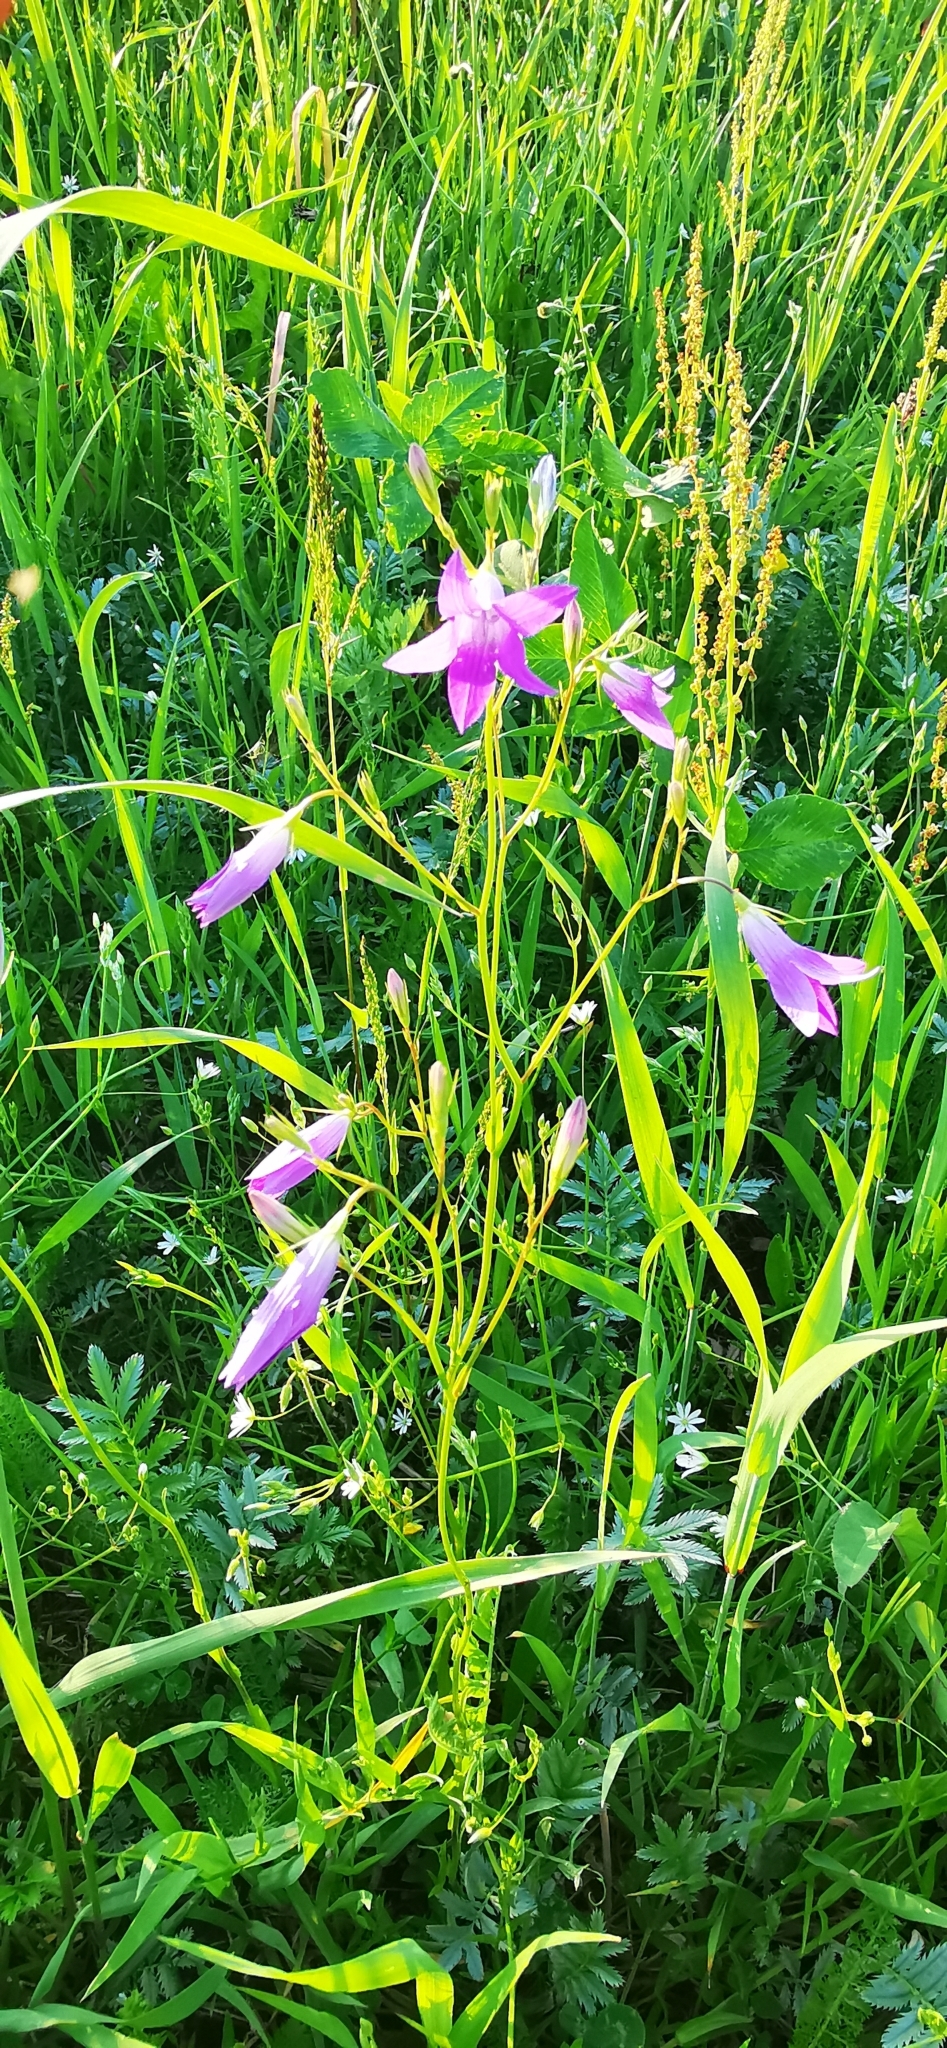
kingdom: Plantae
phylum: Tracheophyta
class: Magnoliopsida
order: Asterales
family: Campanulaceae
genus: Campanula
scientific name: Campanula patula
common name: Spreading bellflower
